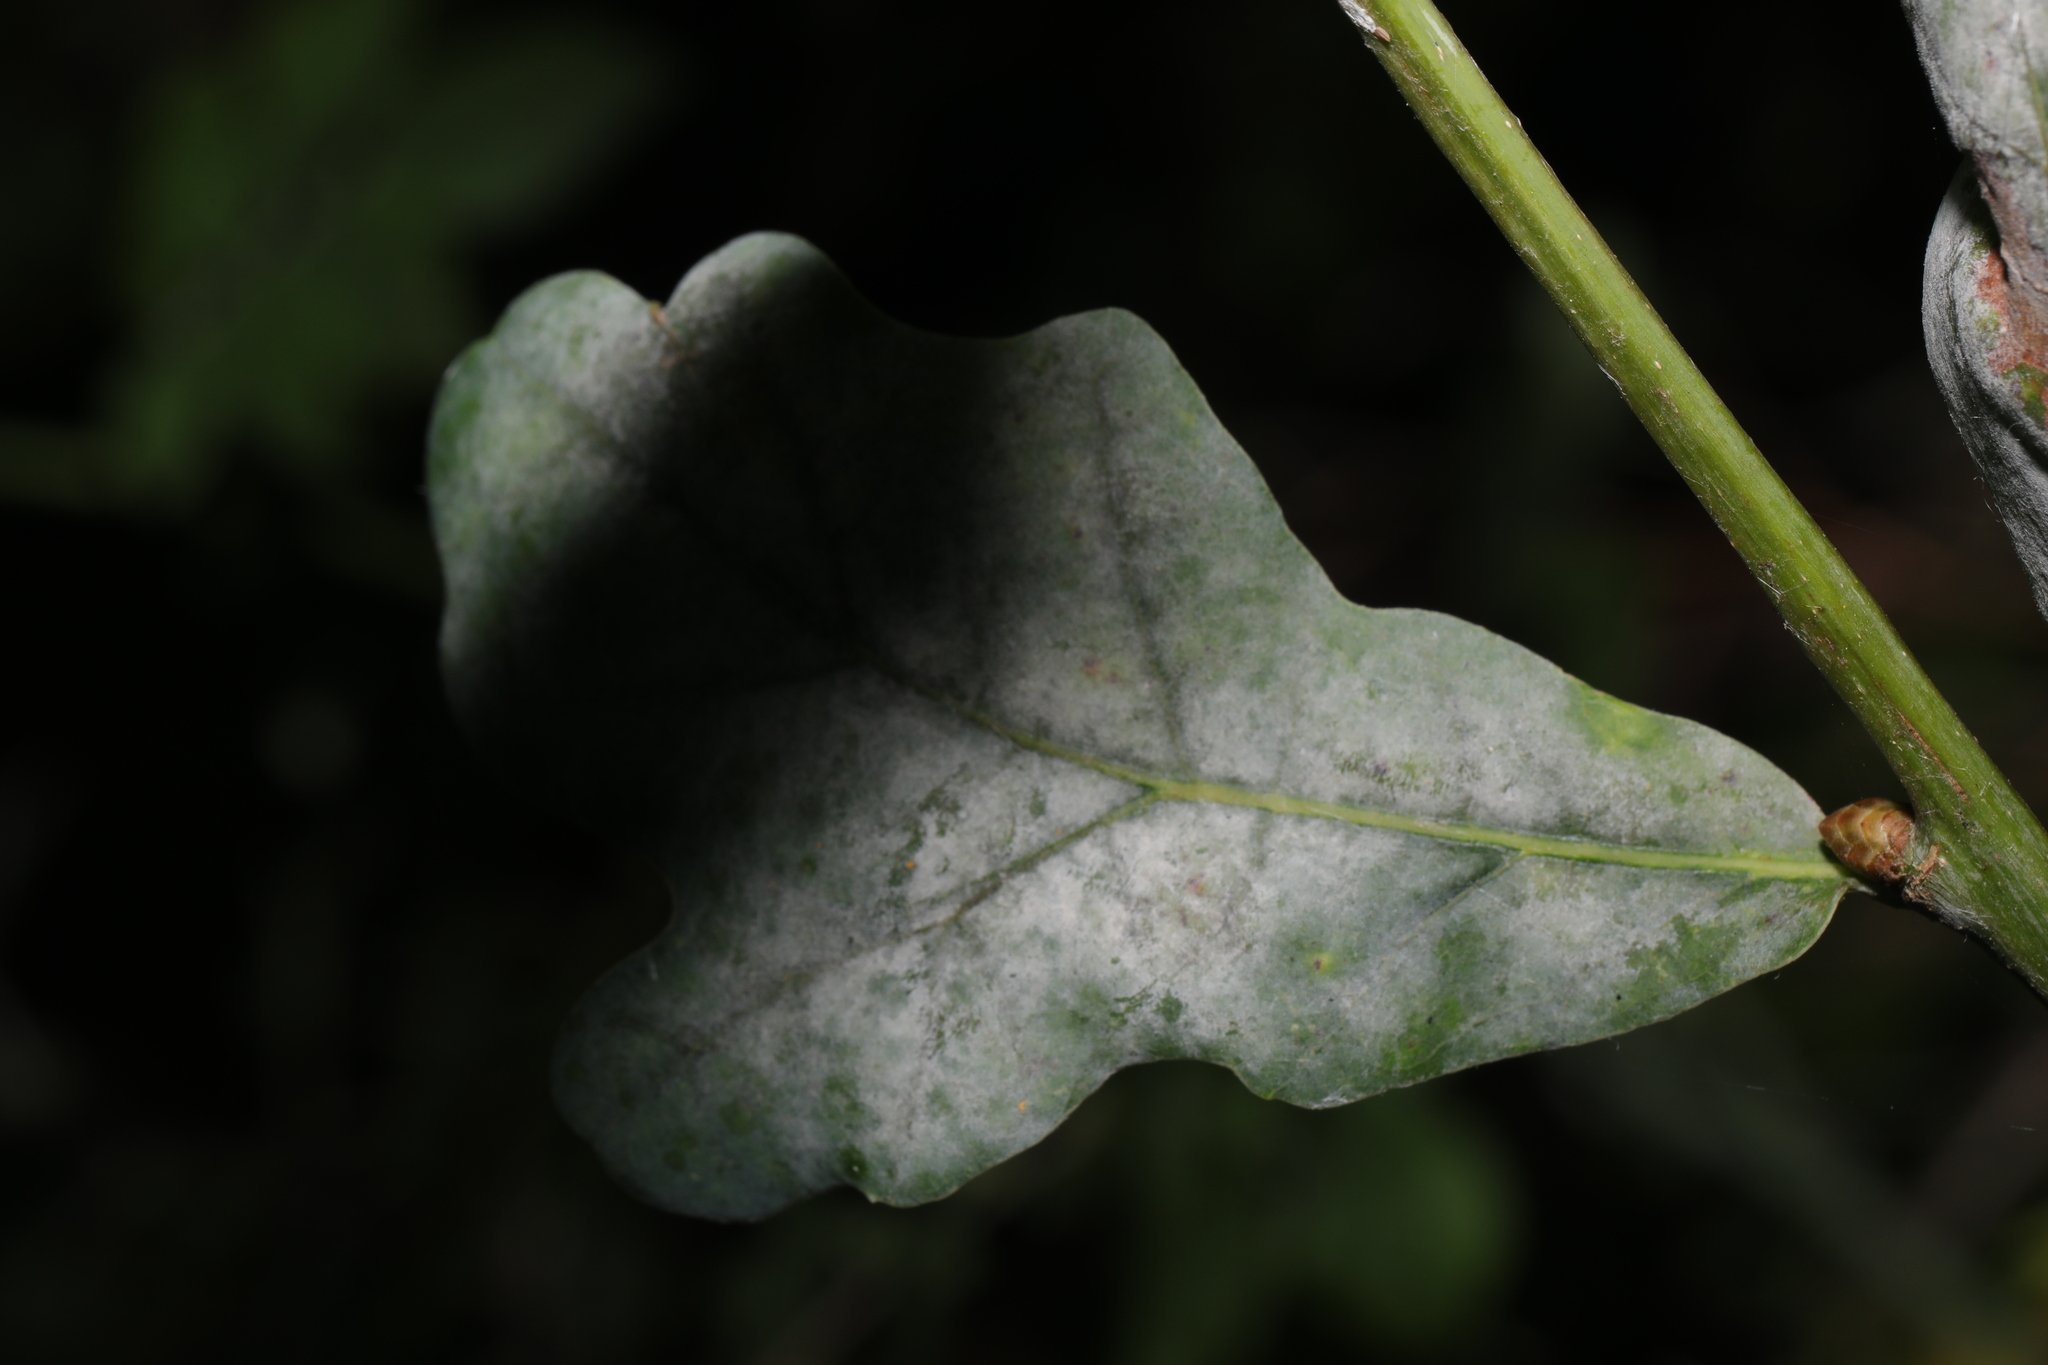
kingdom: Fungi
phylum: Ascomycota
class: Leotiomycetes
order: Helotiales
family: Erysiphaceae
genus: Erysiphe
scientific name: Erysiphe alphitoides
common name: Oak mildew
